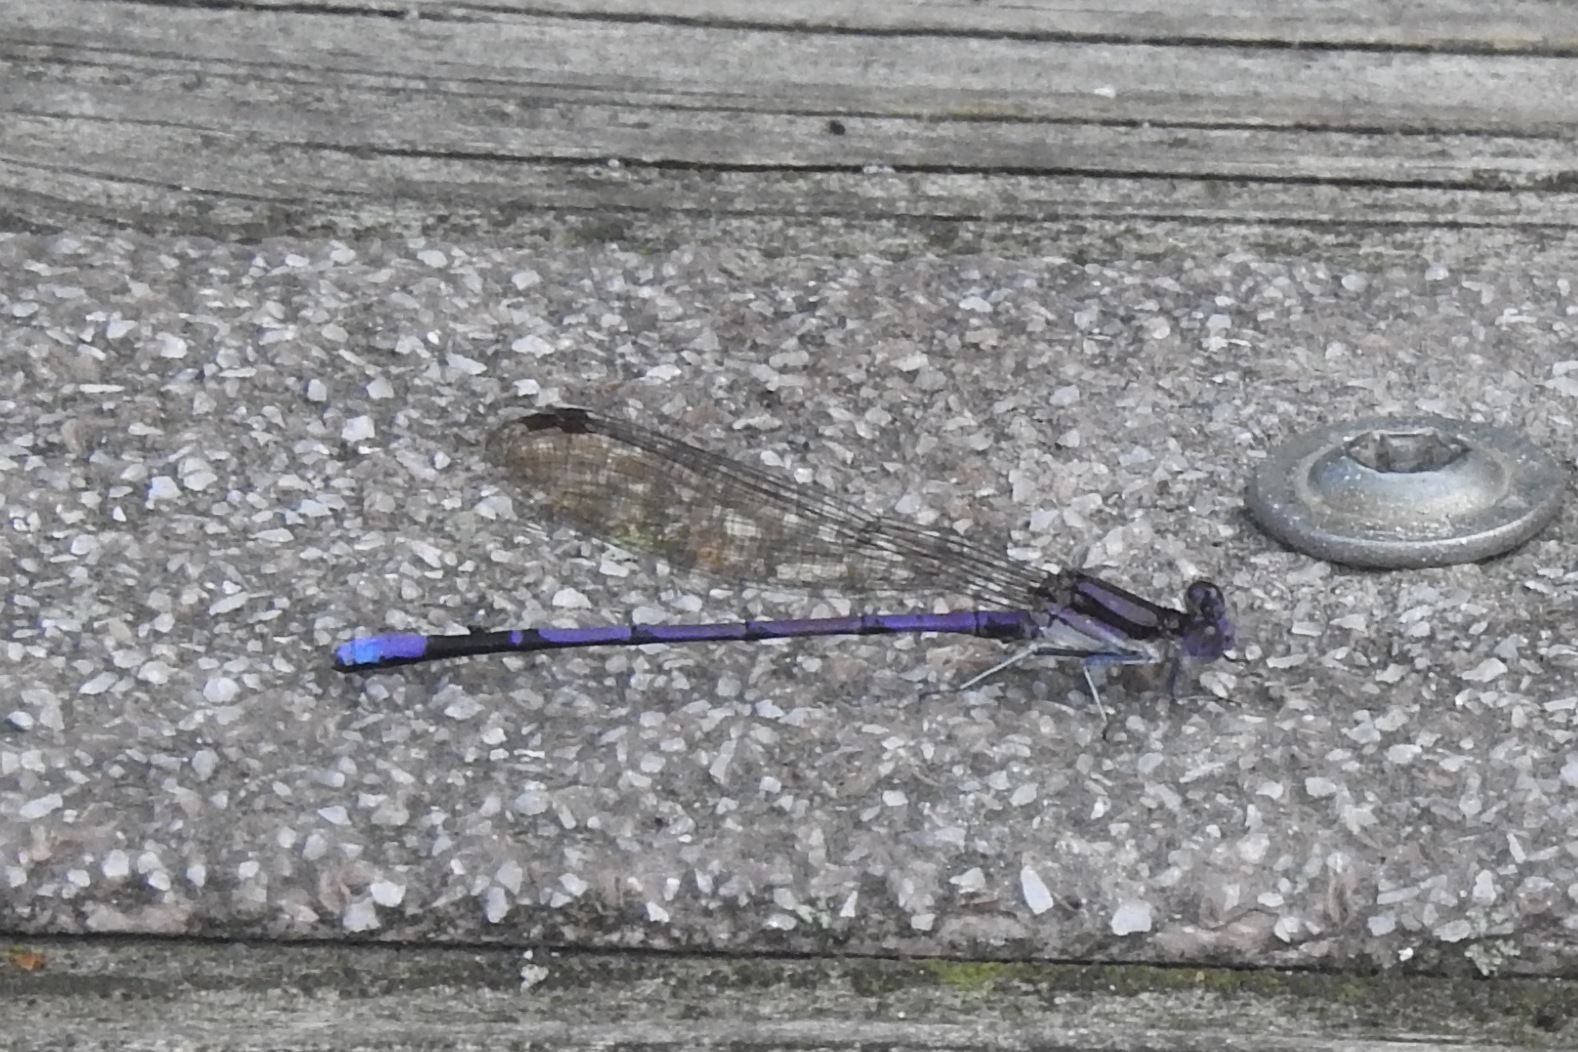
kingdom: Animalia
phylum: Arthropoda
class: Insecta
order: Odonata
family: Coenagrionidae
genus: Argia
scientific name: Argia fumipennis
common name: Variable dancer
